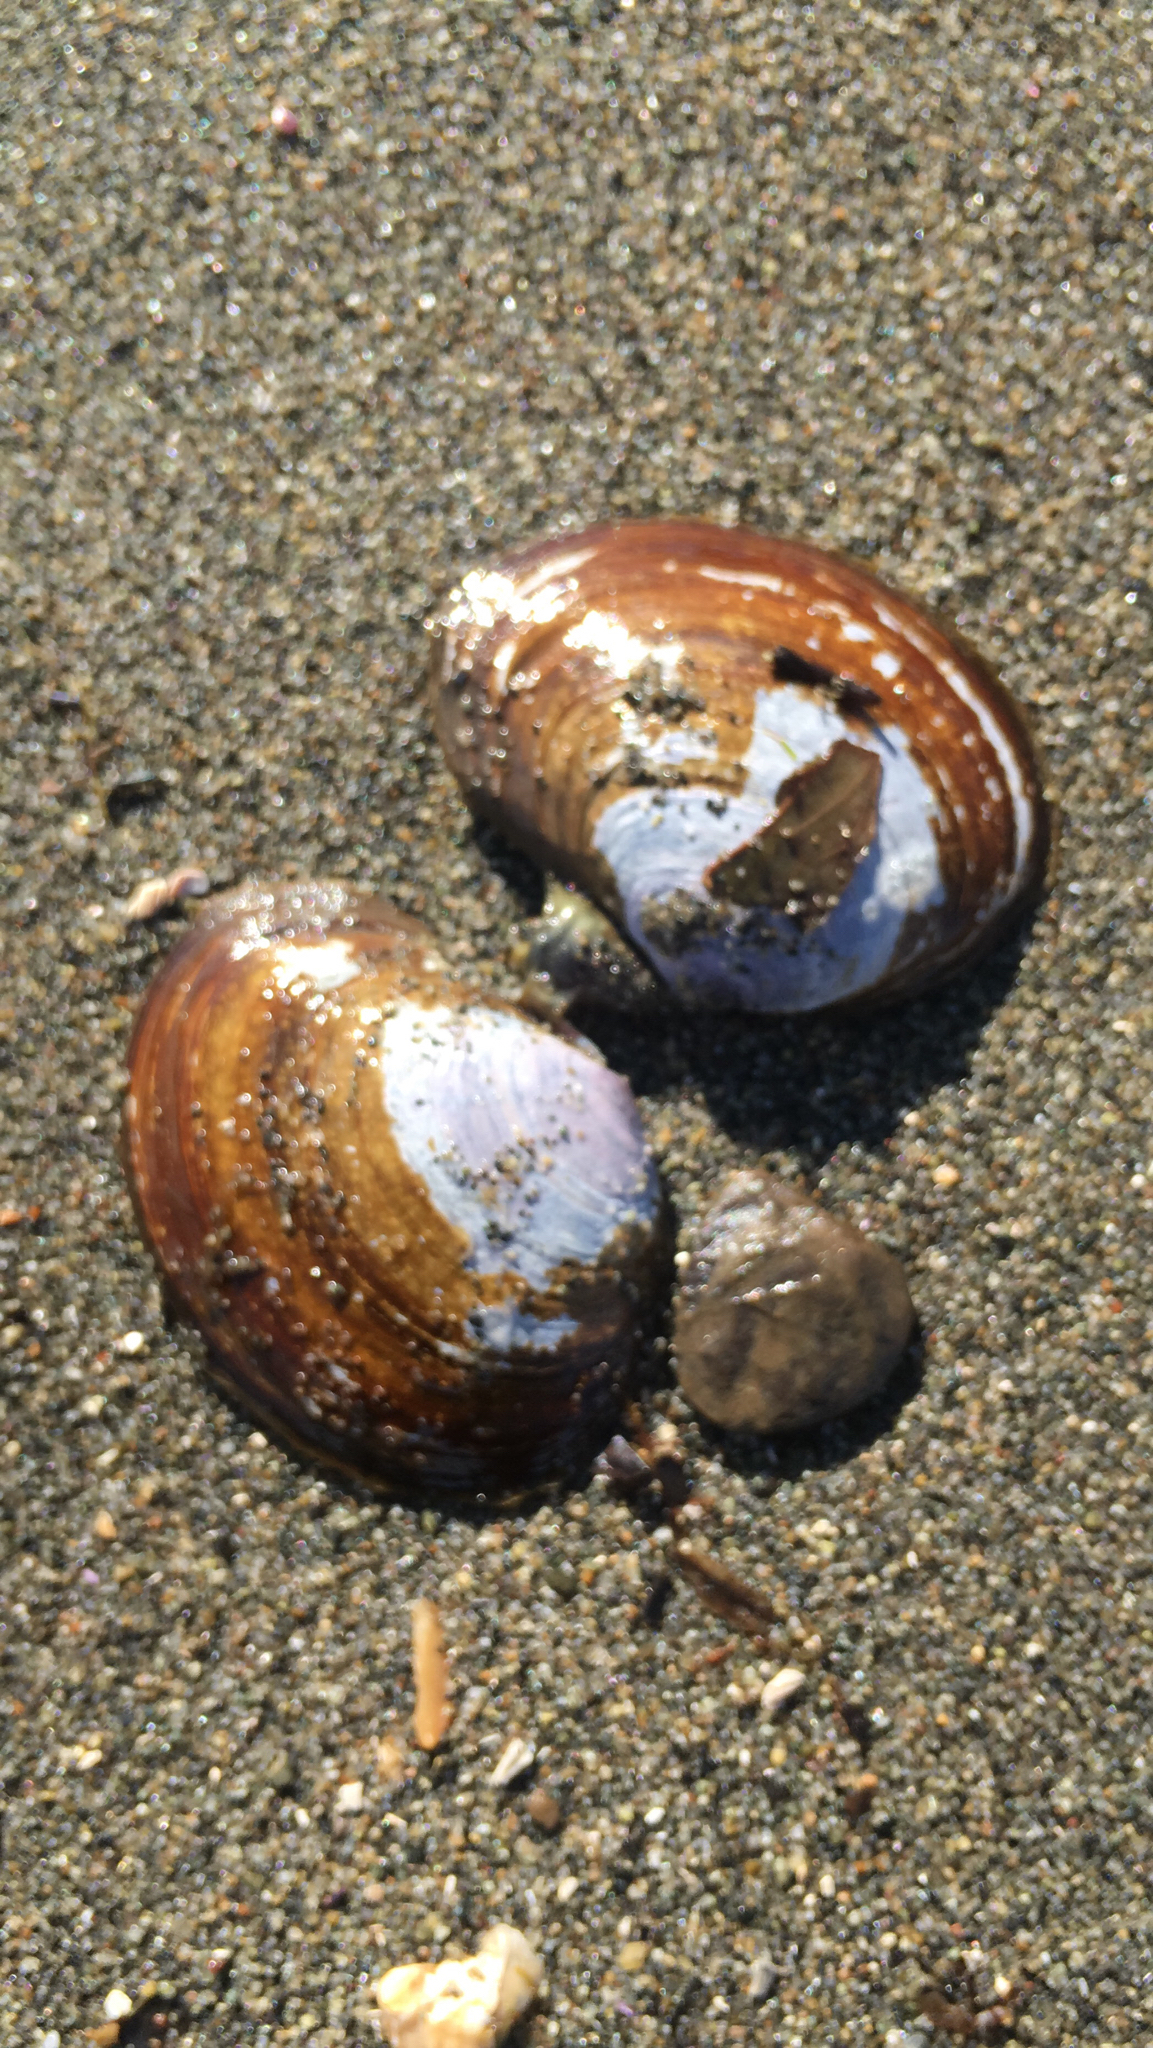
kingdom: Animalia
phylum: Mollusca
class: Bivalvia
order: Cardiida
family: Psammobiidae
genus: Nuttallia
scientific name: Nuttallia obscurata
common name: Purple mahogany-clam
